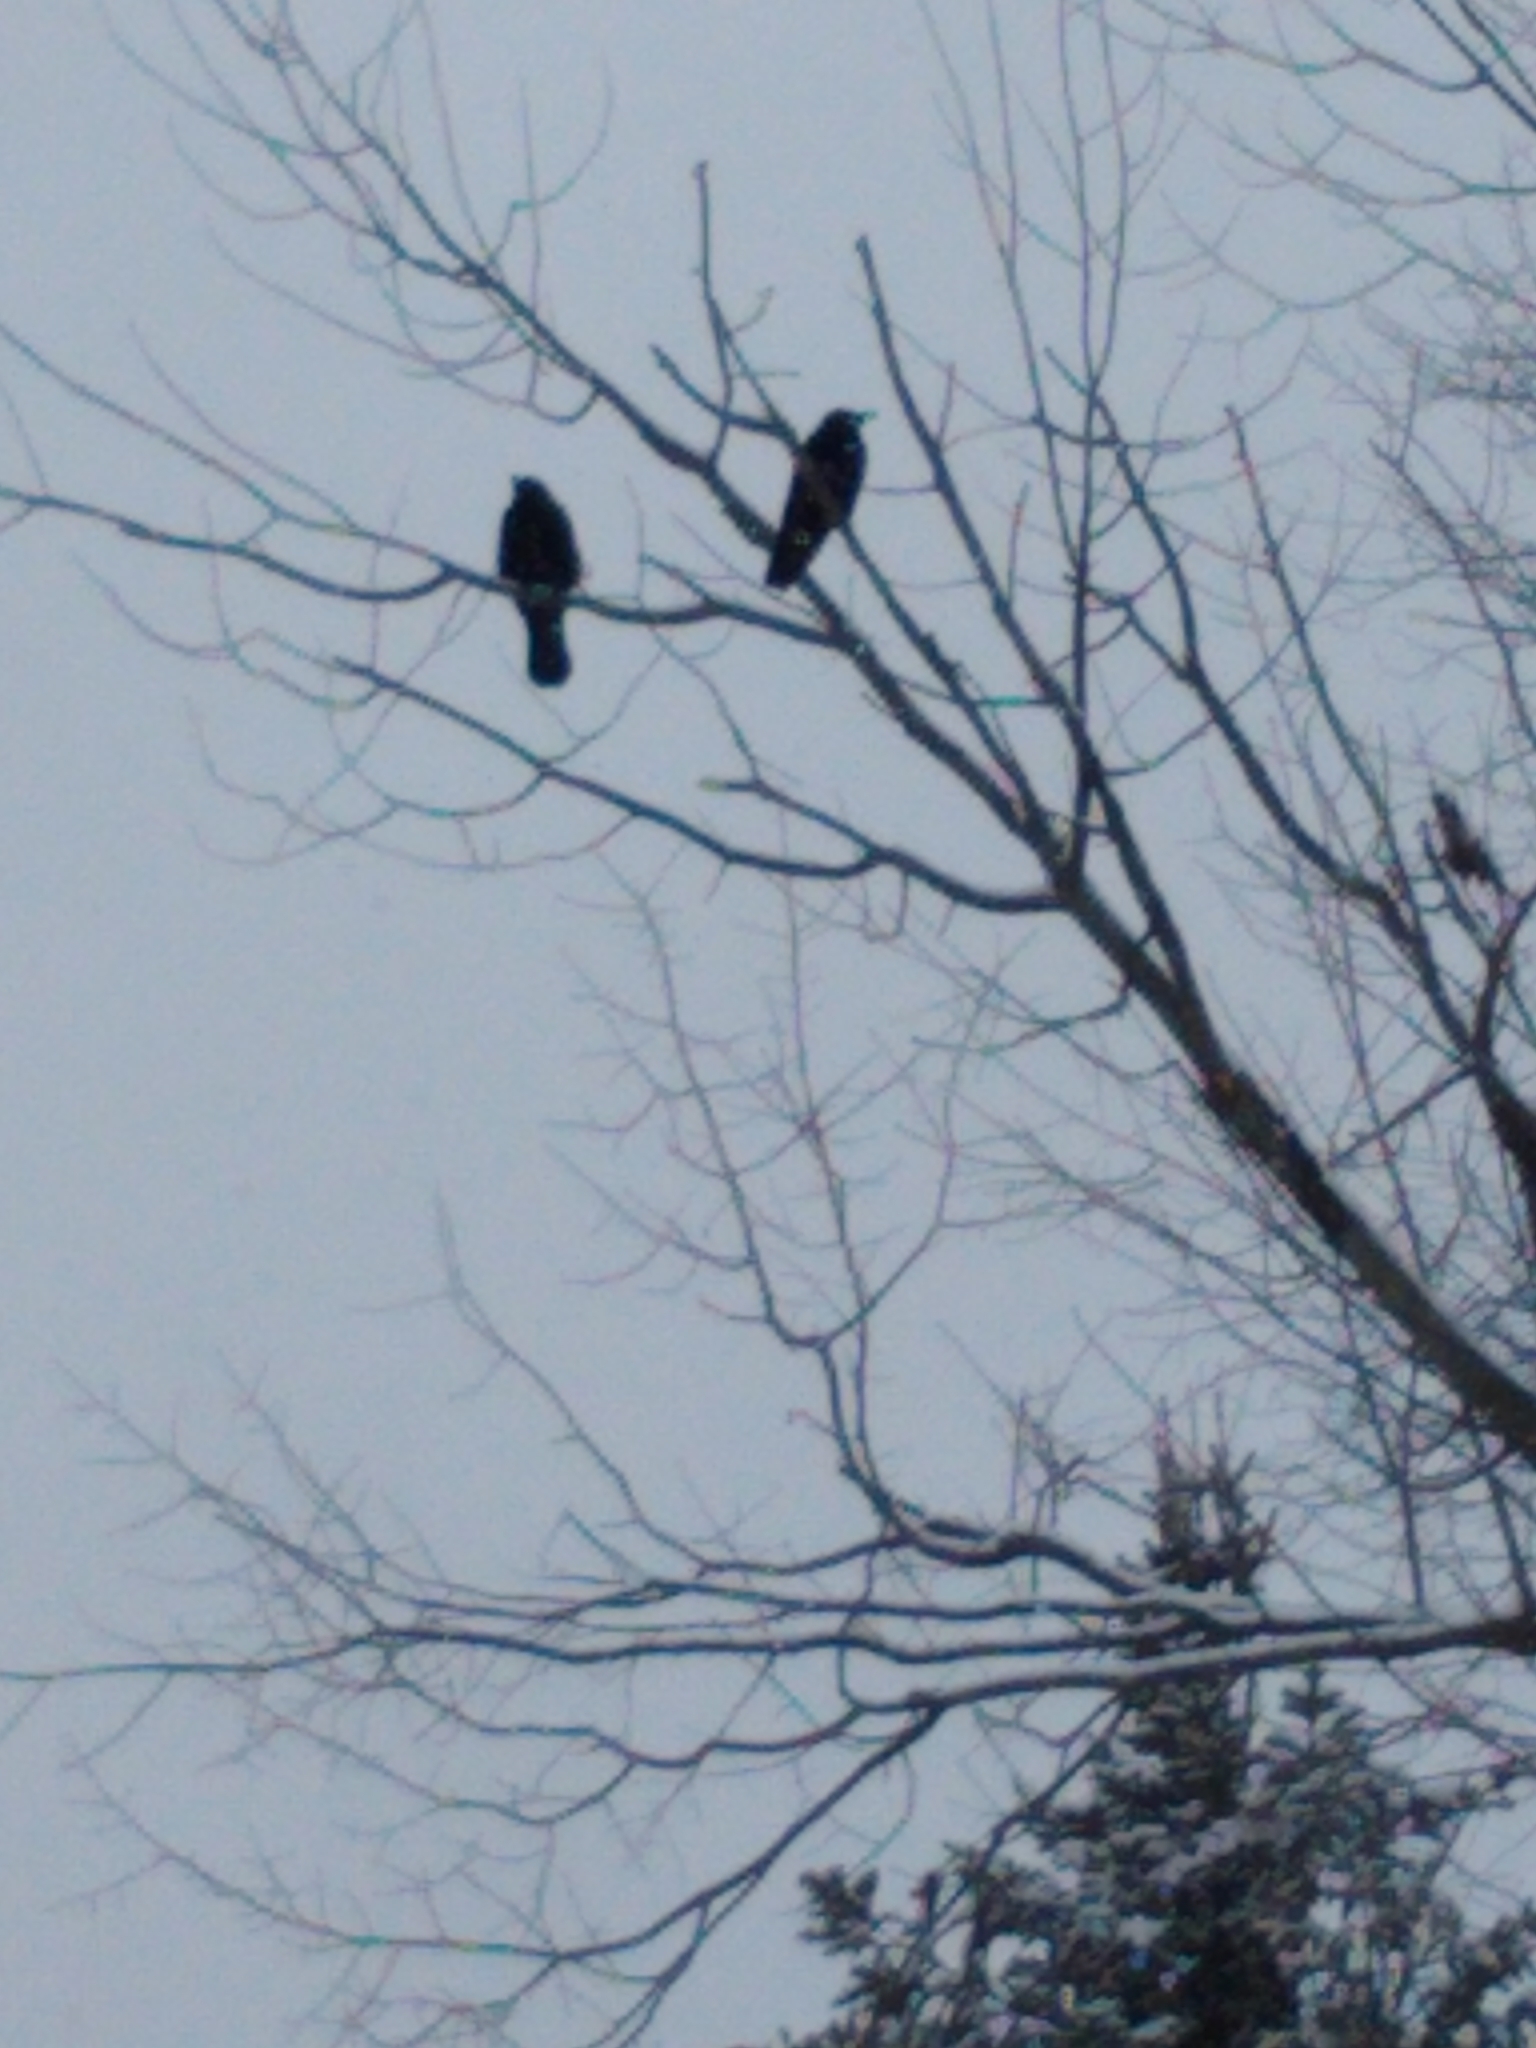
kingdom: Animalia
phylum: Chordata
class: Aves
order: Passeriformes
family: Corvidae
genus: Corvus
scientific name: Corvus brachyrhynchos
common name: American crow
